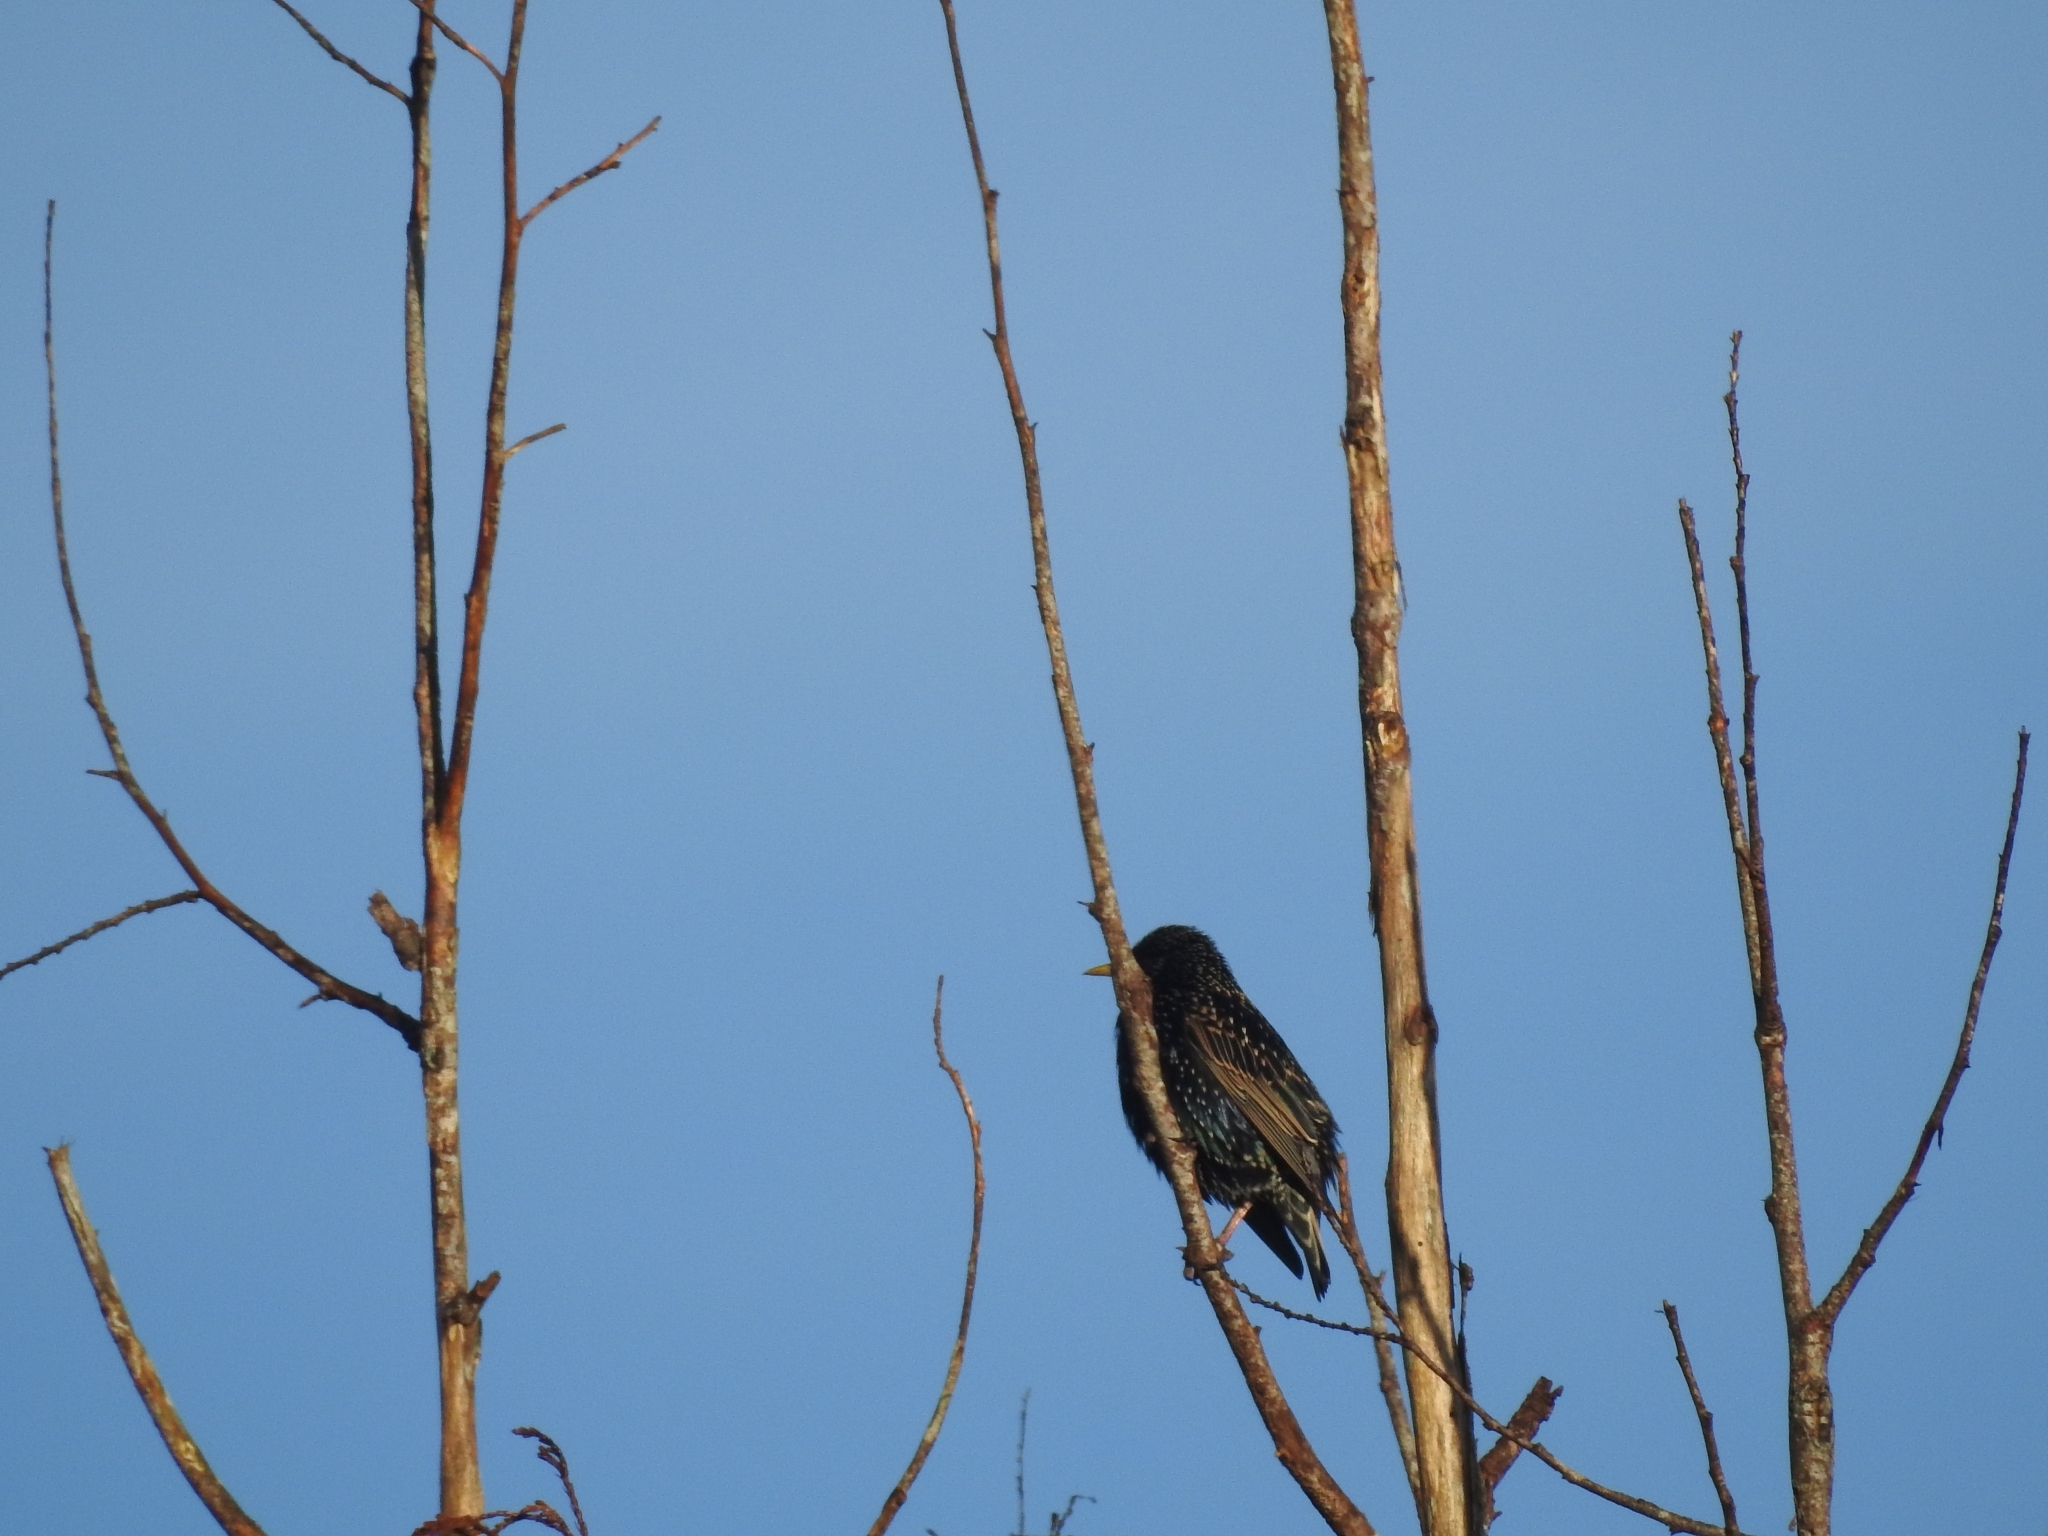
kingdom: Animalia
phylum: Chordata
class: Aves
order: Passeriformes
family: Sturnidae
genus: Sturnus
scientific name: Sturnus vulgaris
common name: Common starling
